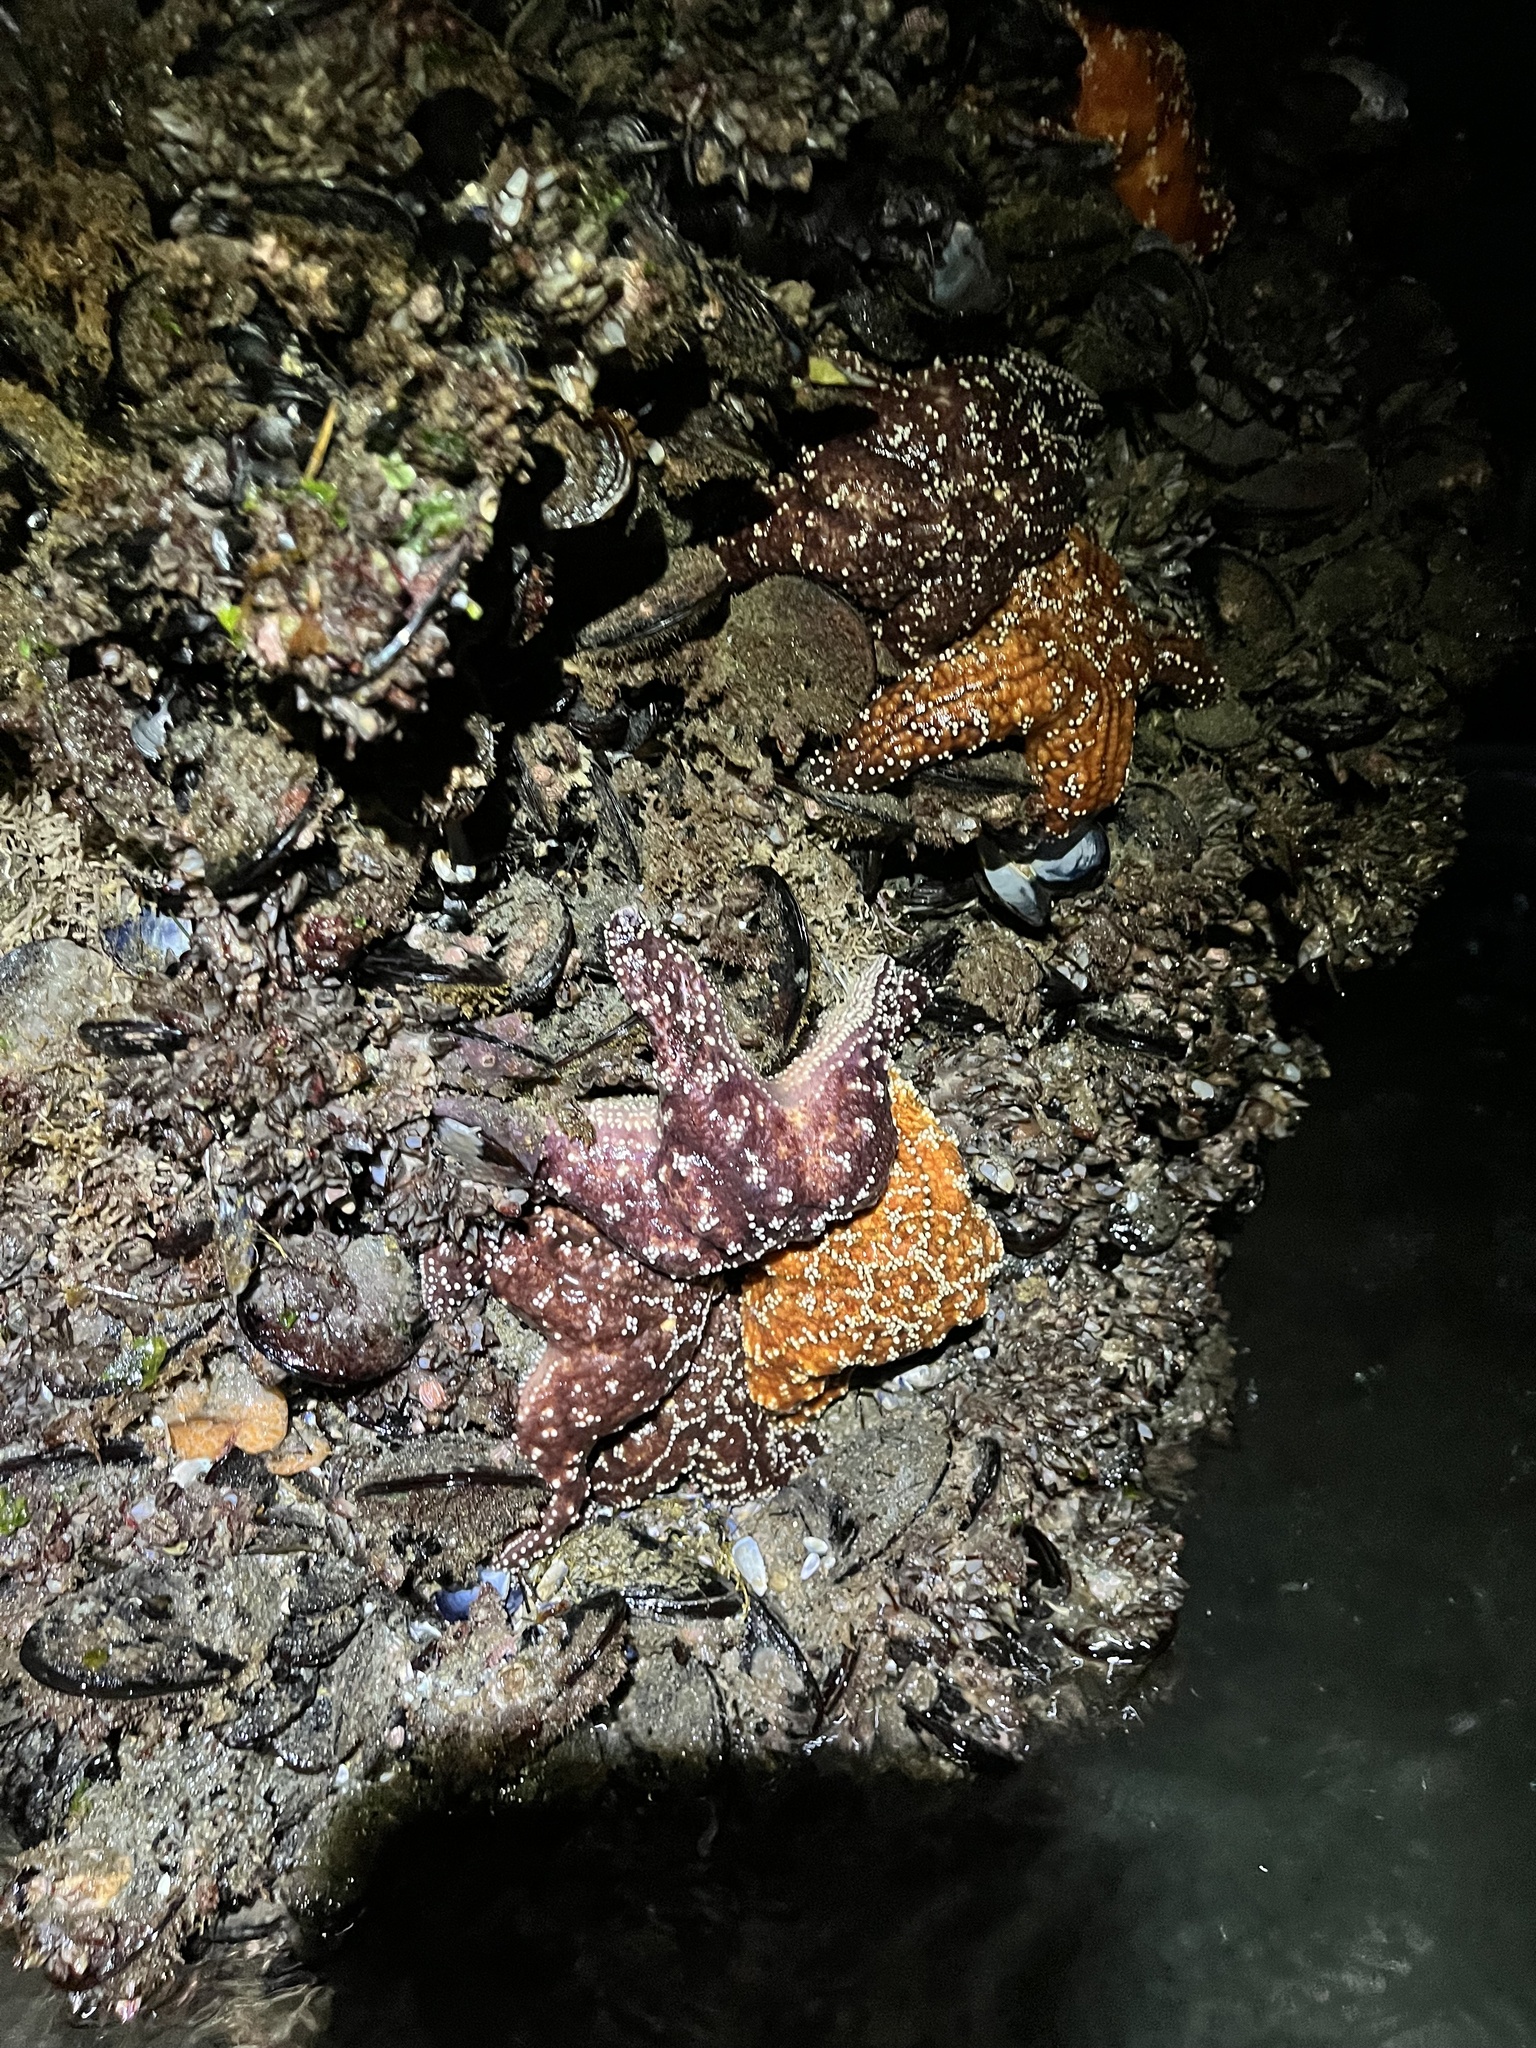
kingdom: Animalia
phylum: Echinodermata
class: Asteroidea
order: Forcipulatida
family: Asteriidae
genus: Pisaster
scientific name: Pisaster ochraceus
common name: Ochre stars
